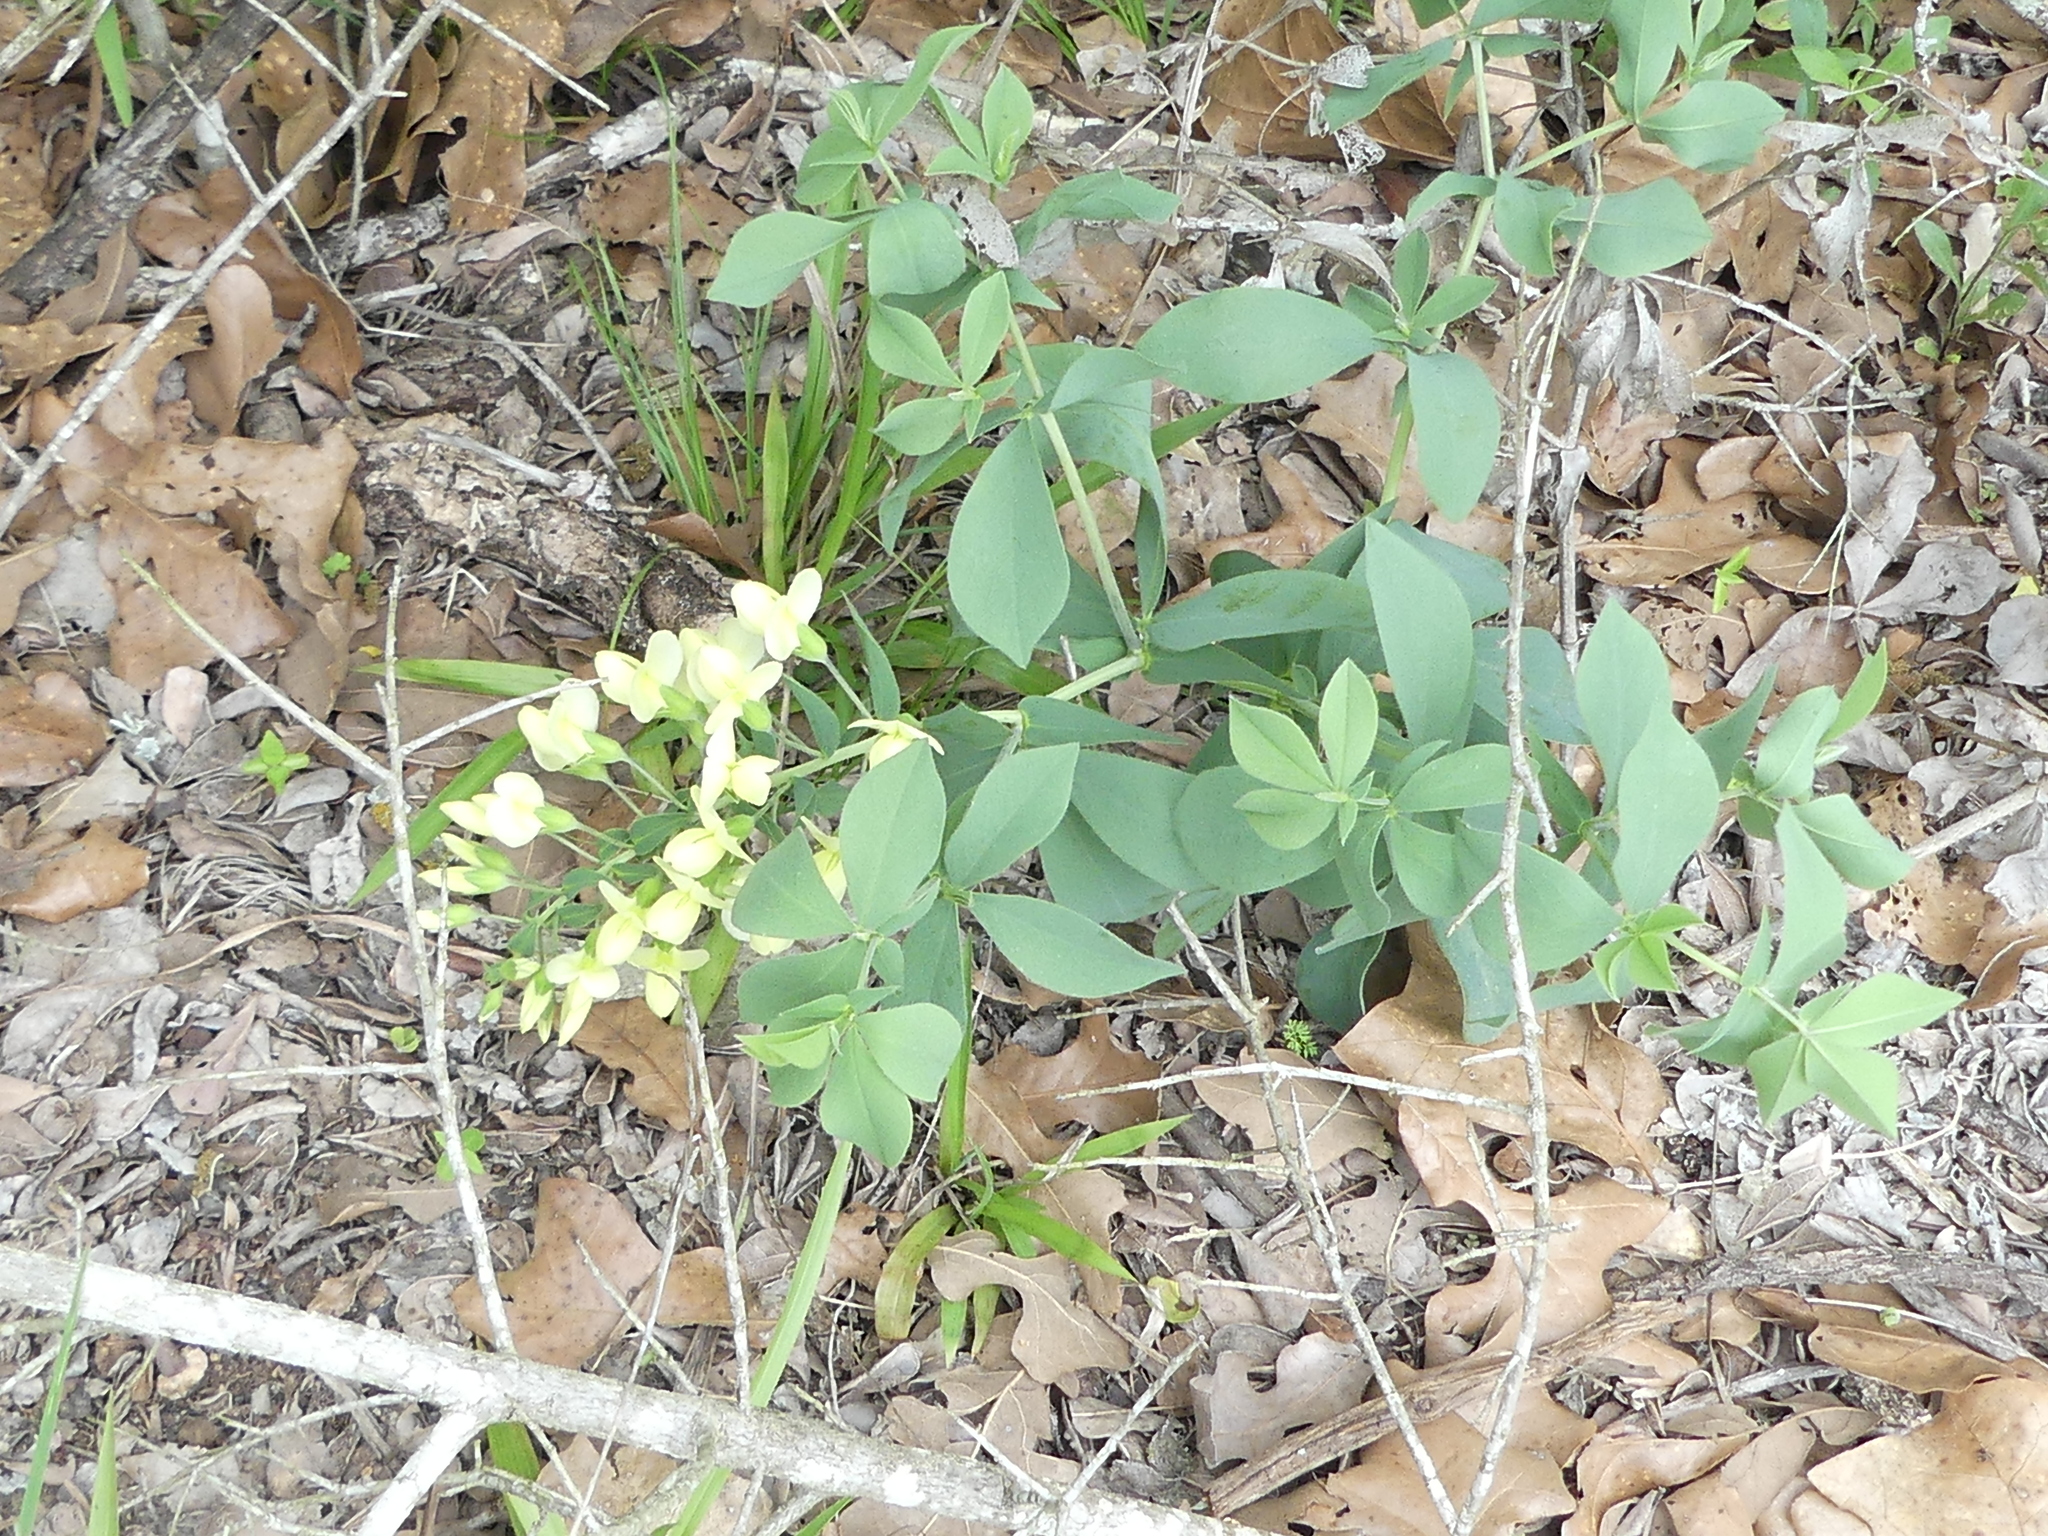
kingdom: Plantae
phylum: Tracheophyta
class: Magnoliopsida
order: Fabales
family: Fabaceae
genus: Baptisia
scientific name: Baptisia bracteata
